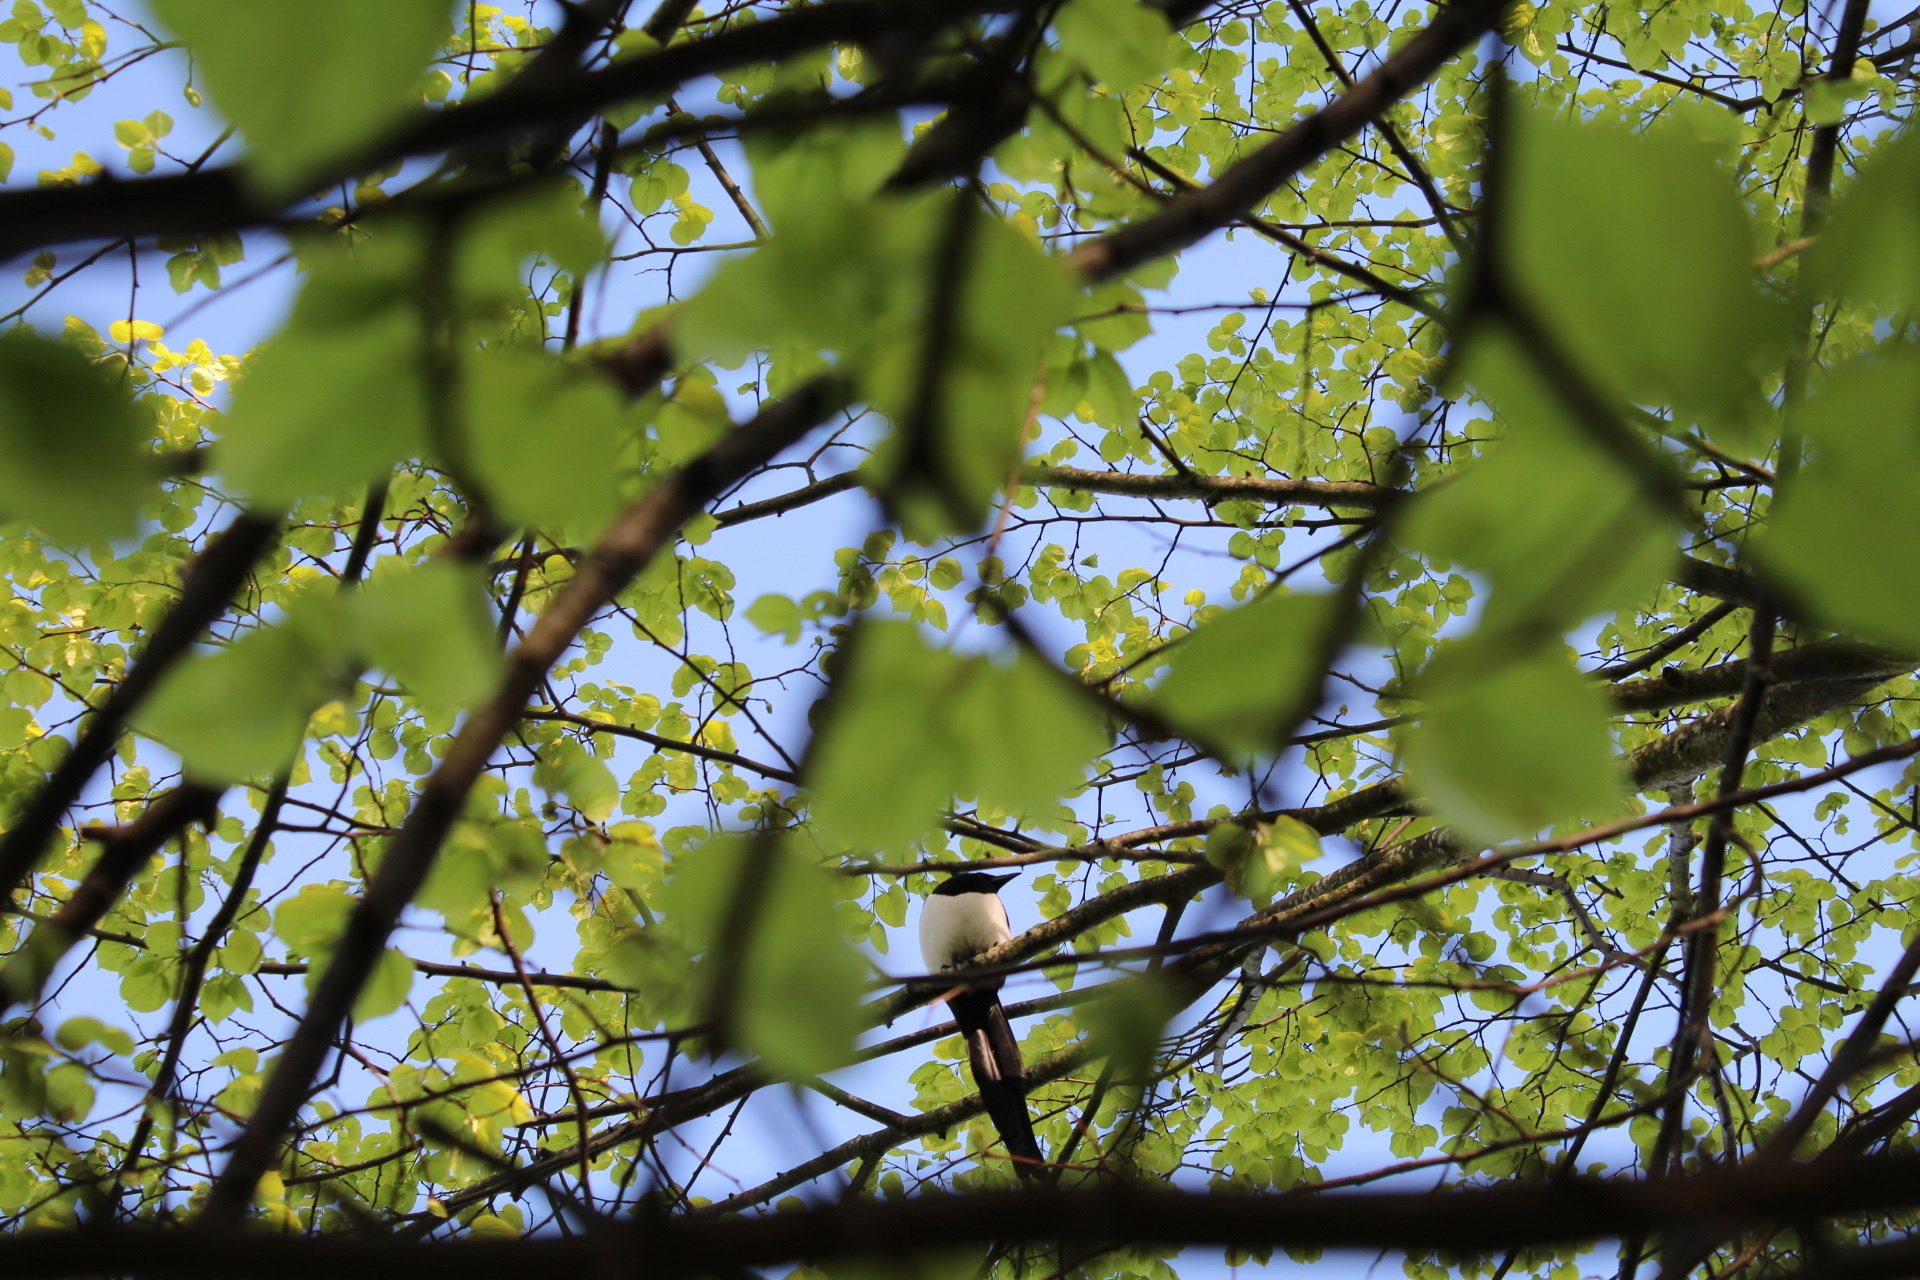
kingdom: Animalia
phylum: Chordata
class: Aves
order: Passeriformes
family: Corvidae
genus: Pica
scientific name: Pica pica
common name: Eurasian magpie
